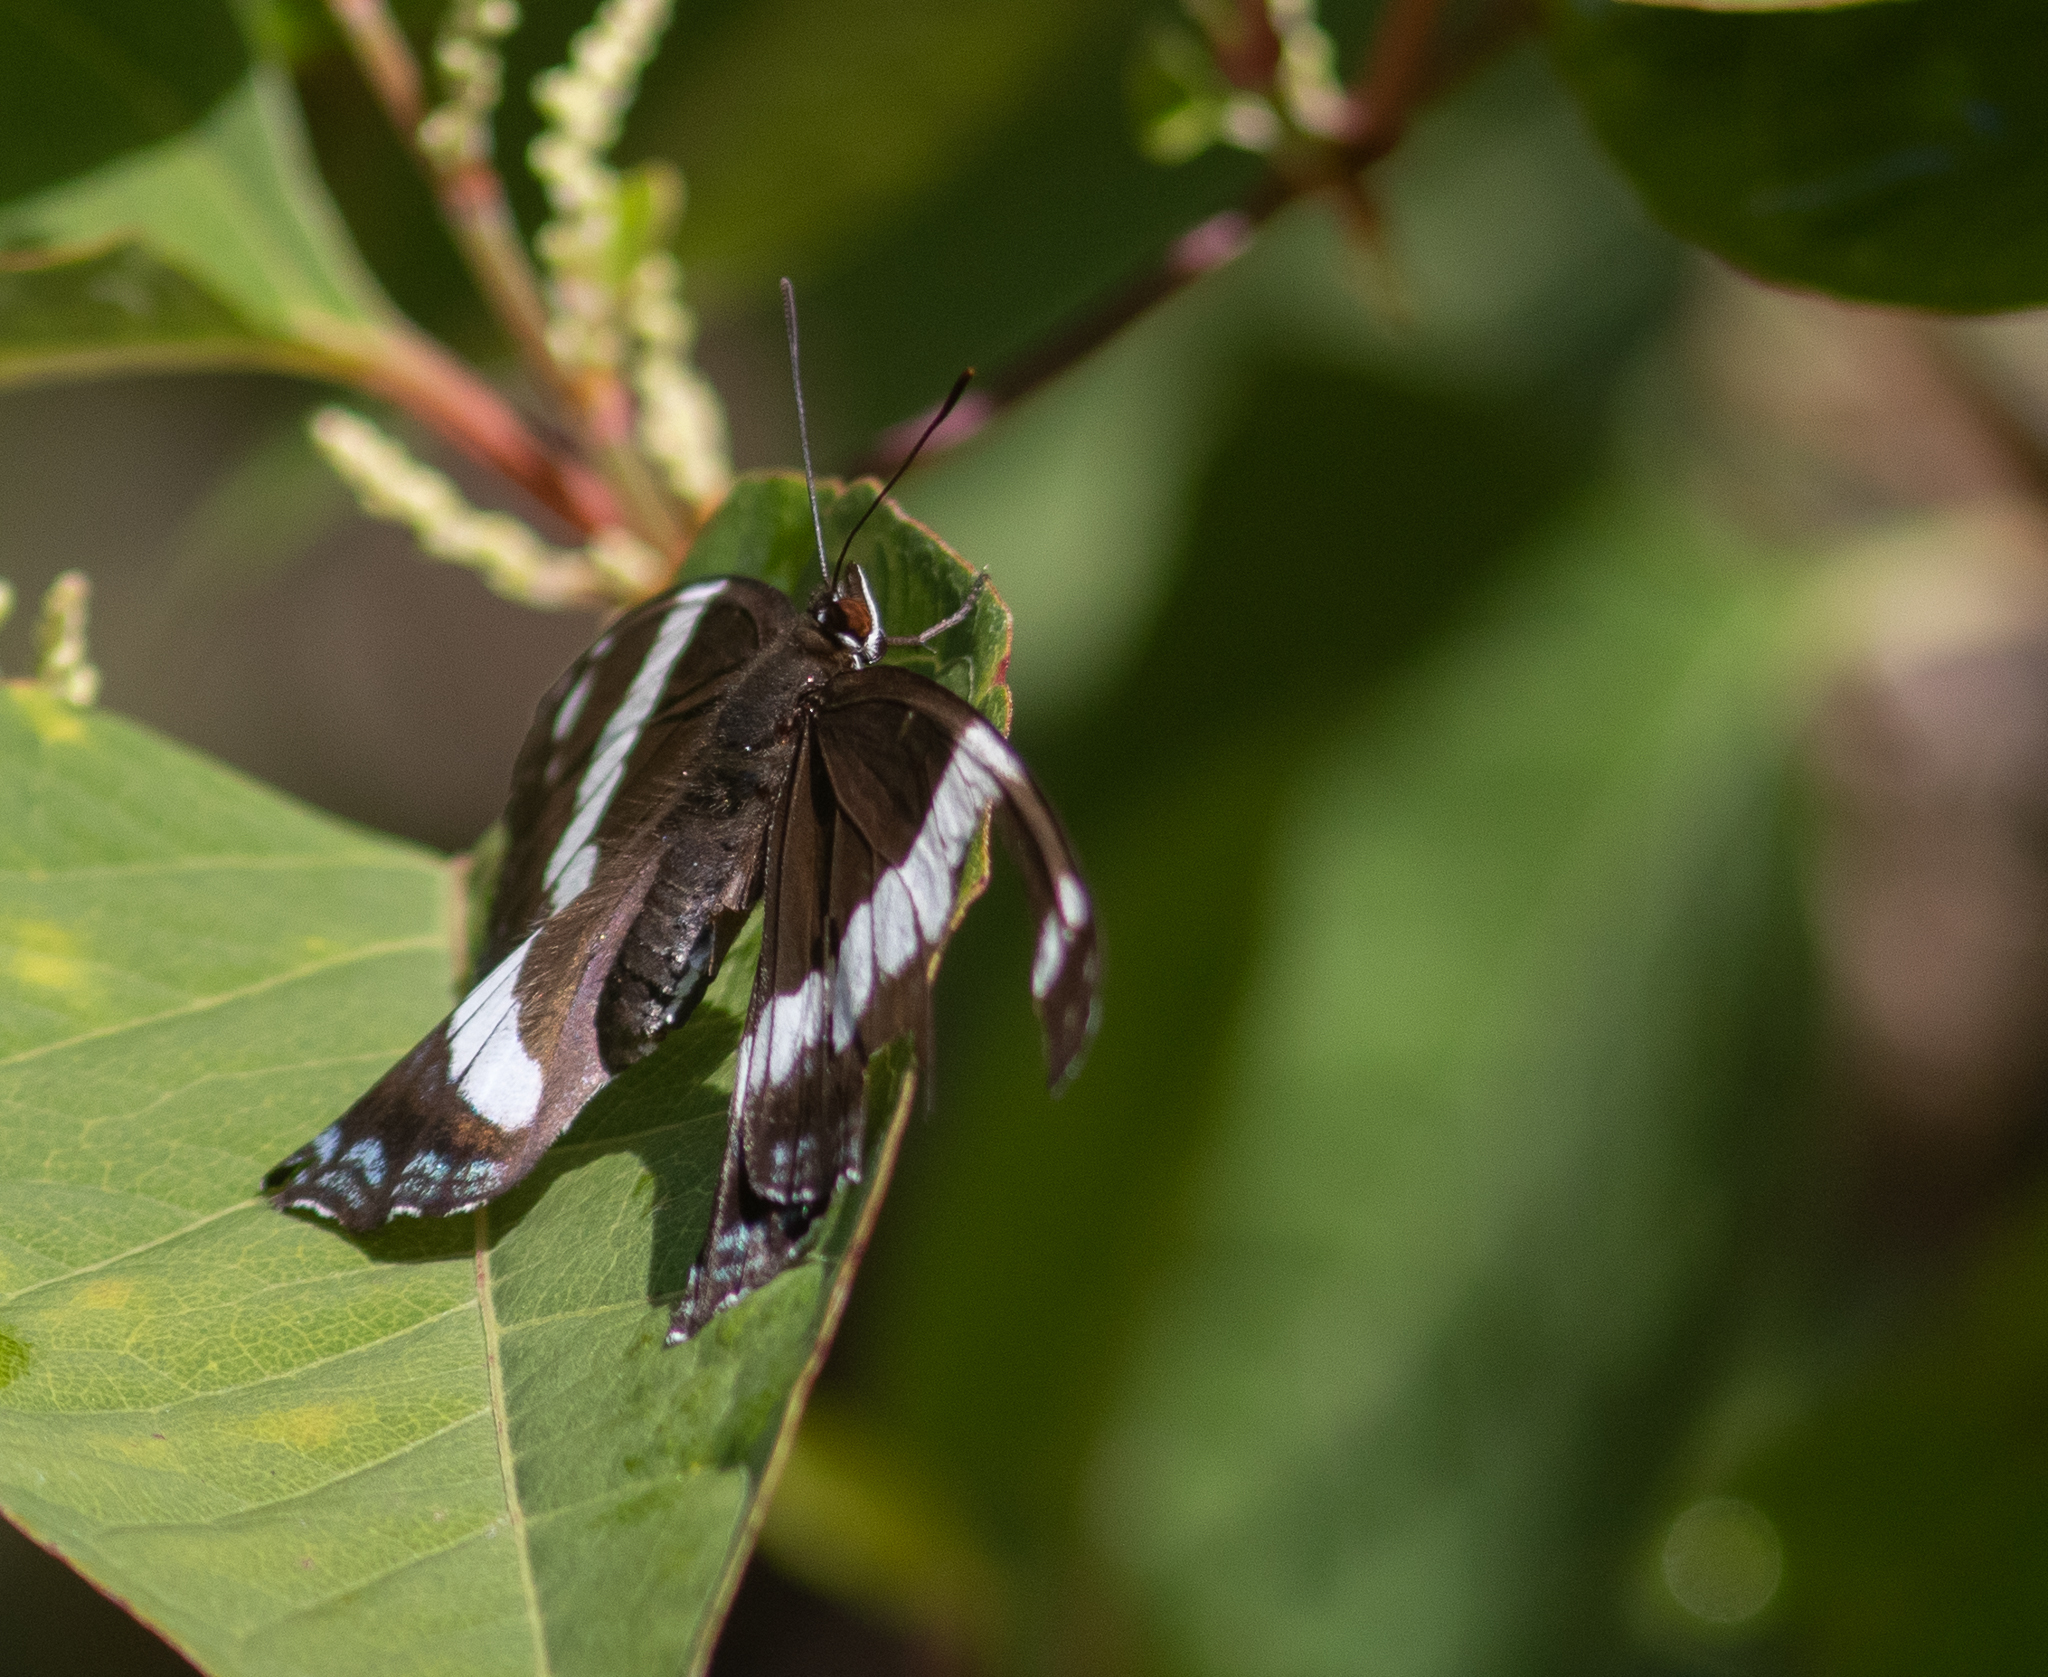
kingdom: Animalia
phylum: Arthropoda
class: Insecta
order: Lepidoptera
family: Nymphalidae
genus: Limenitis
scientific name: Limenitis arthemis
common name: Red-spotted admiral
